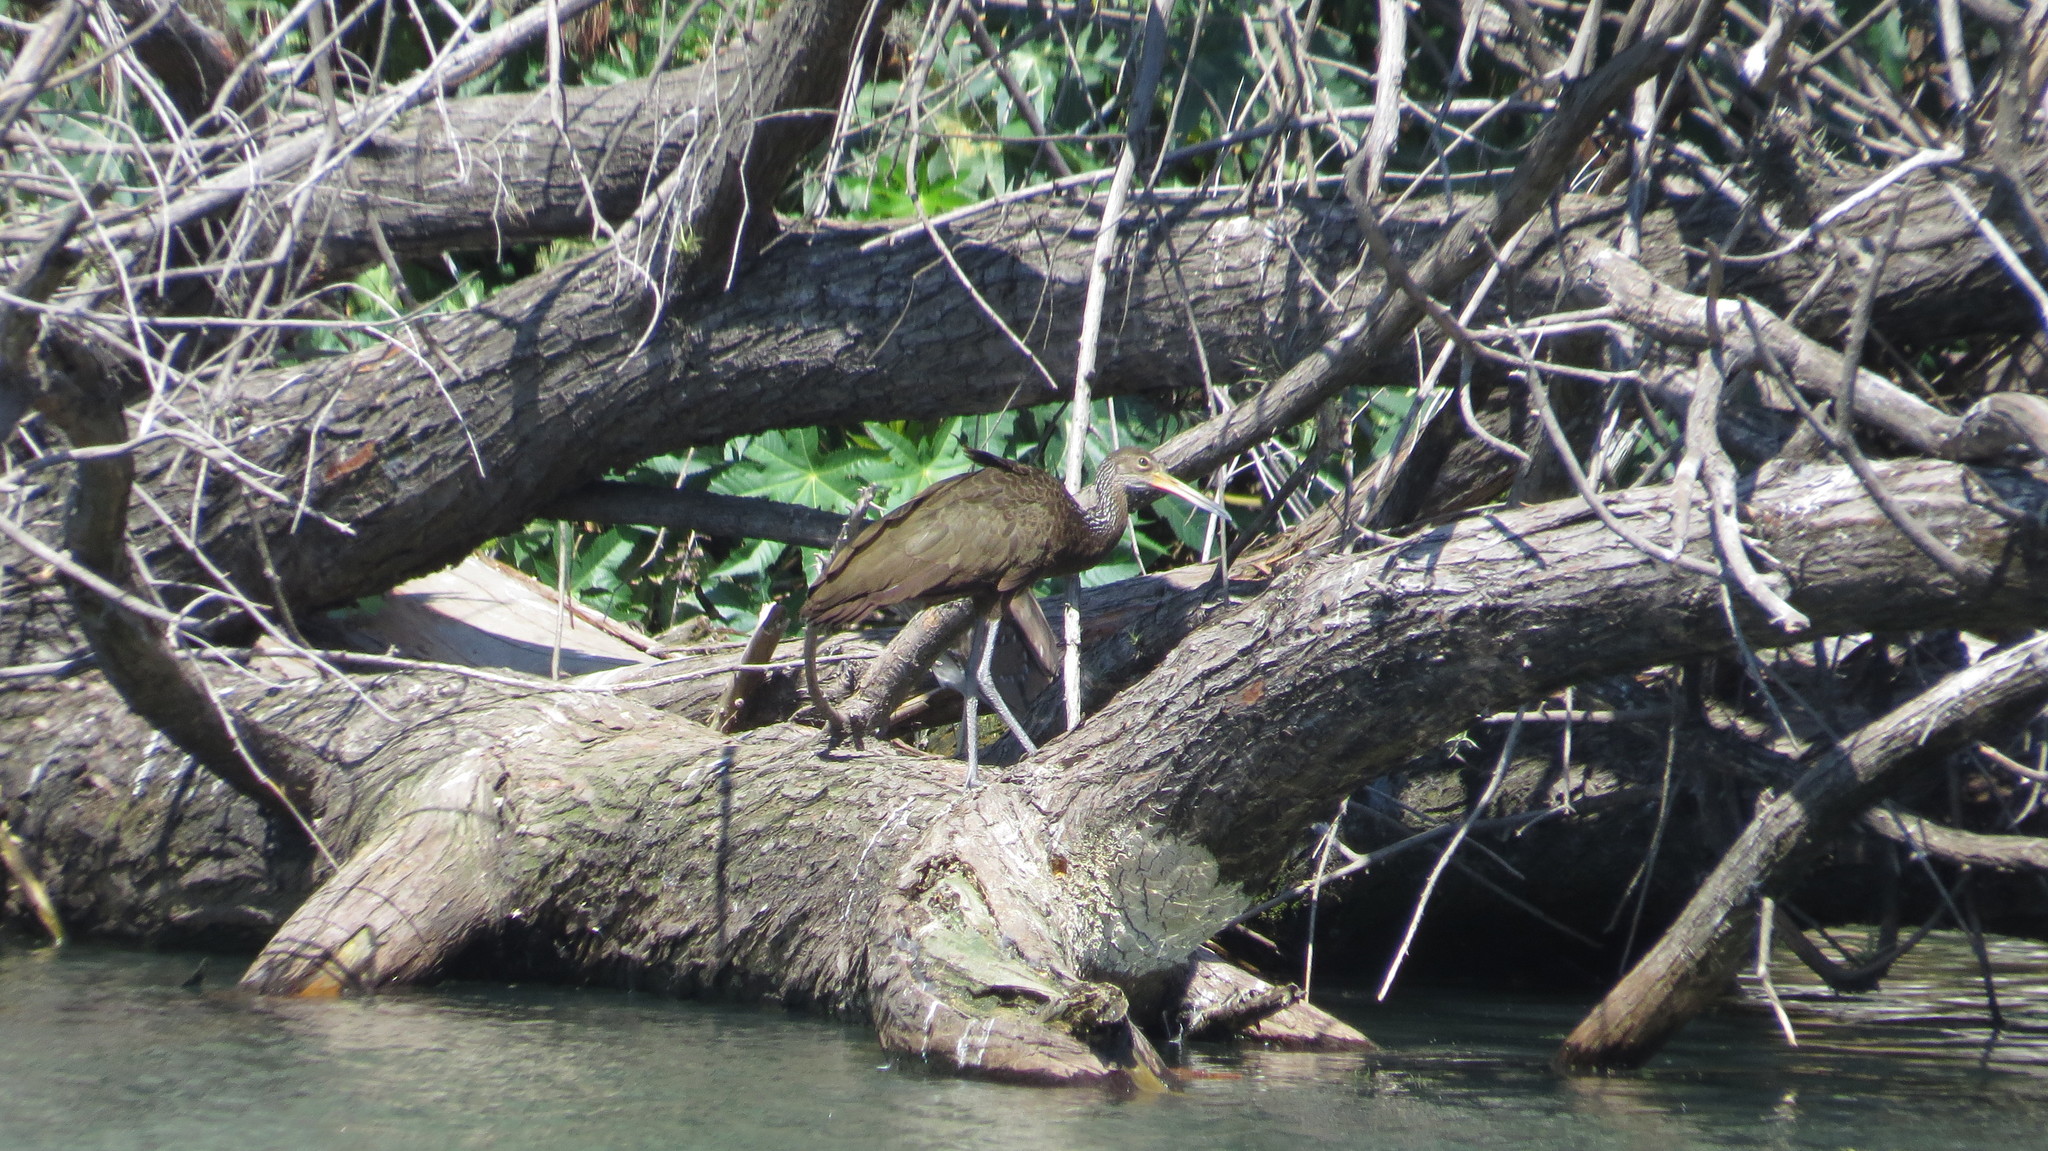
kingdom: Animalia
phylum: Chordata
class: Aves
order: Gruiformes
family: Aramidae
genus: Aramus
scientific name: Aramus guarauna
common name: Limpkin
